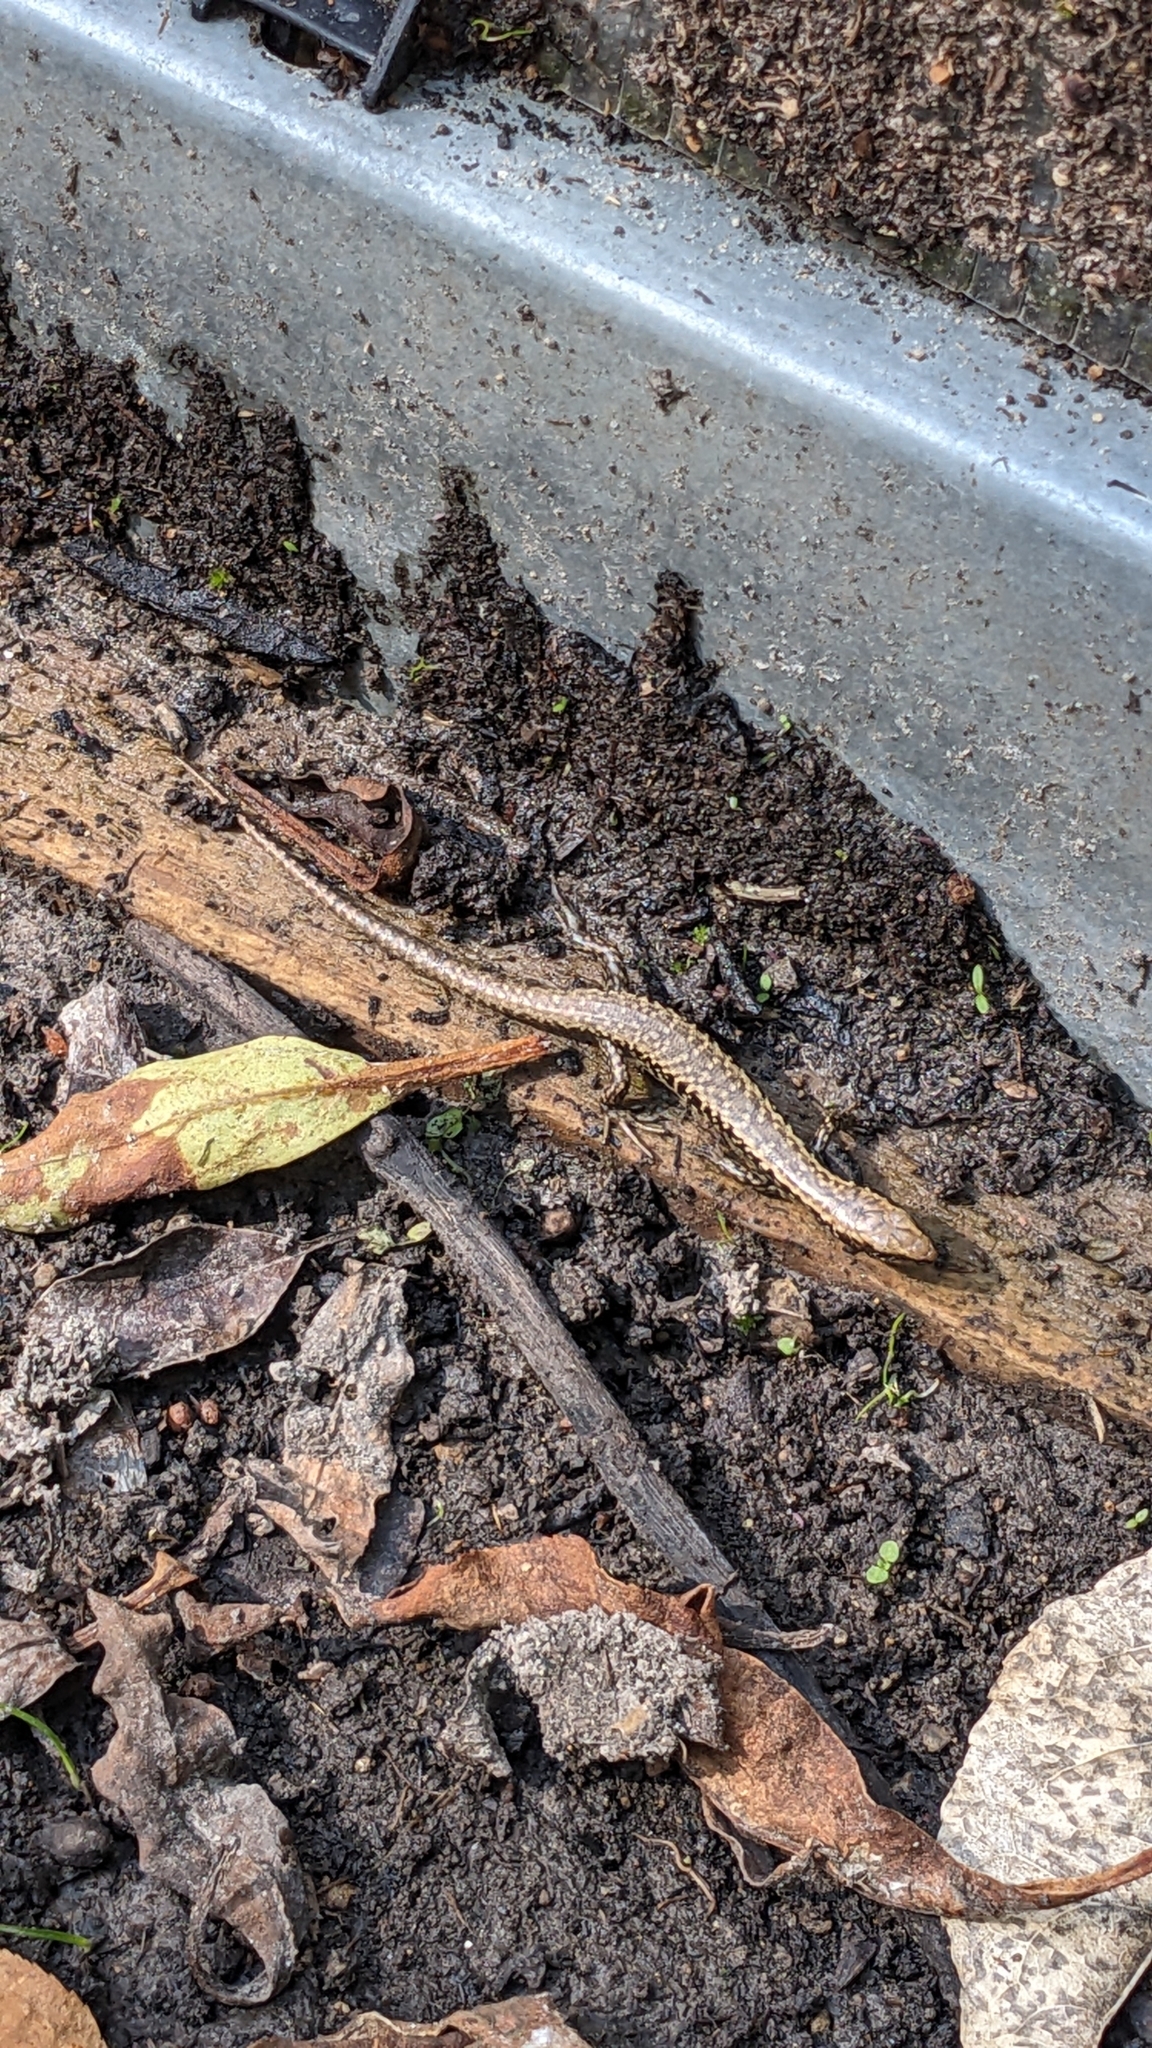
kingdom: Animalia
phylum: Chordata
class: Squamata
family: Scincidae
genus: Oligosoma
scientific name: Oligosoma kokowai
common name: Northern spotted skink
